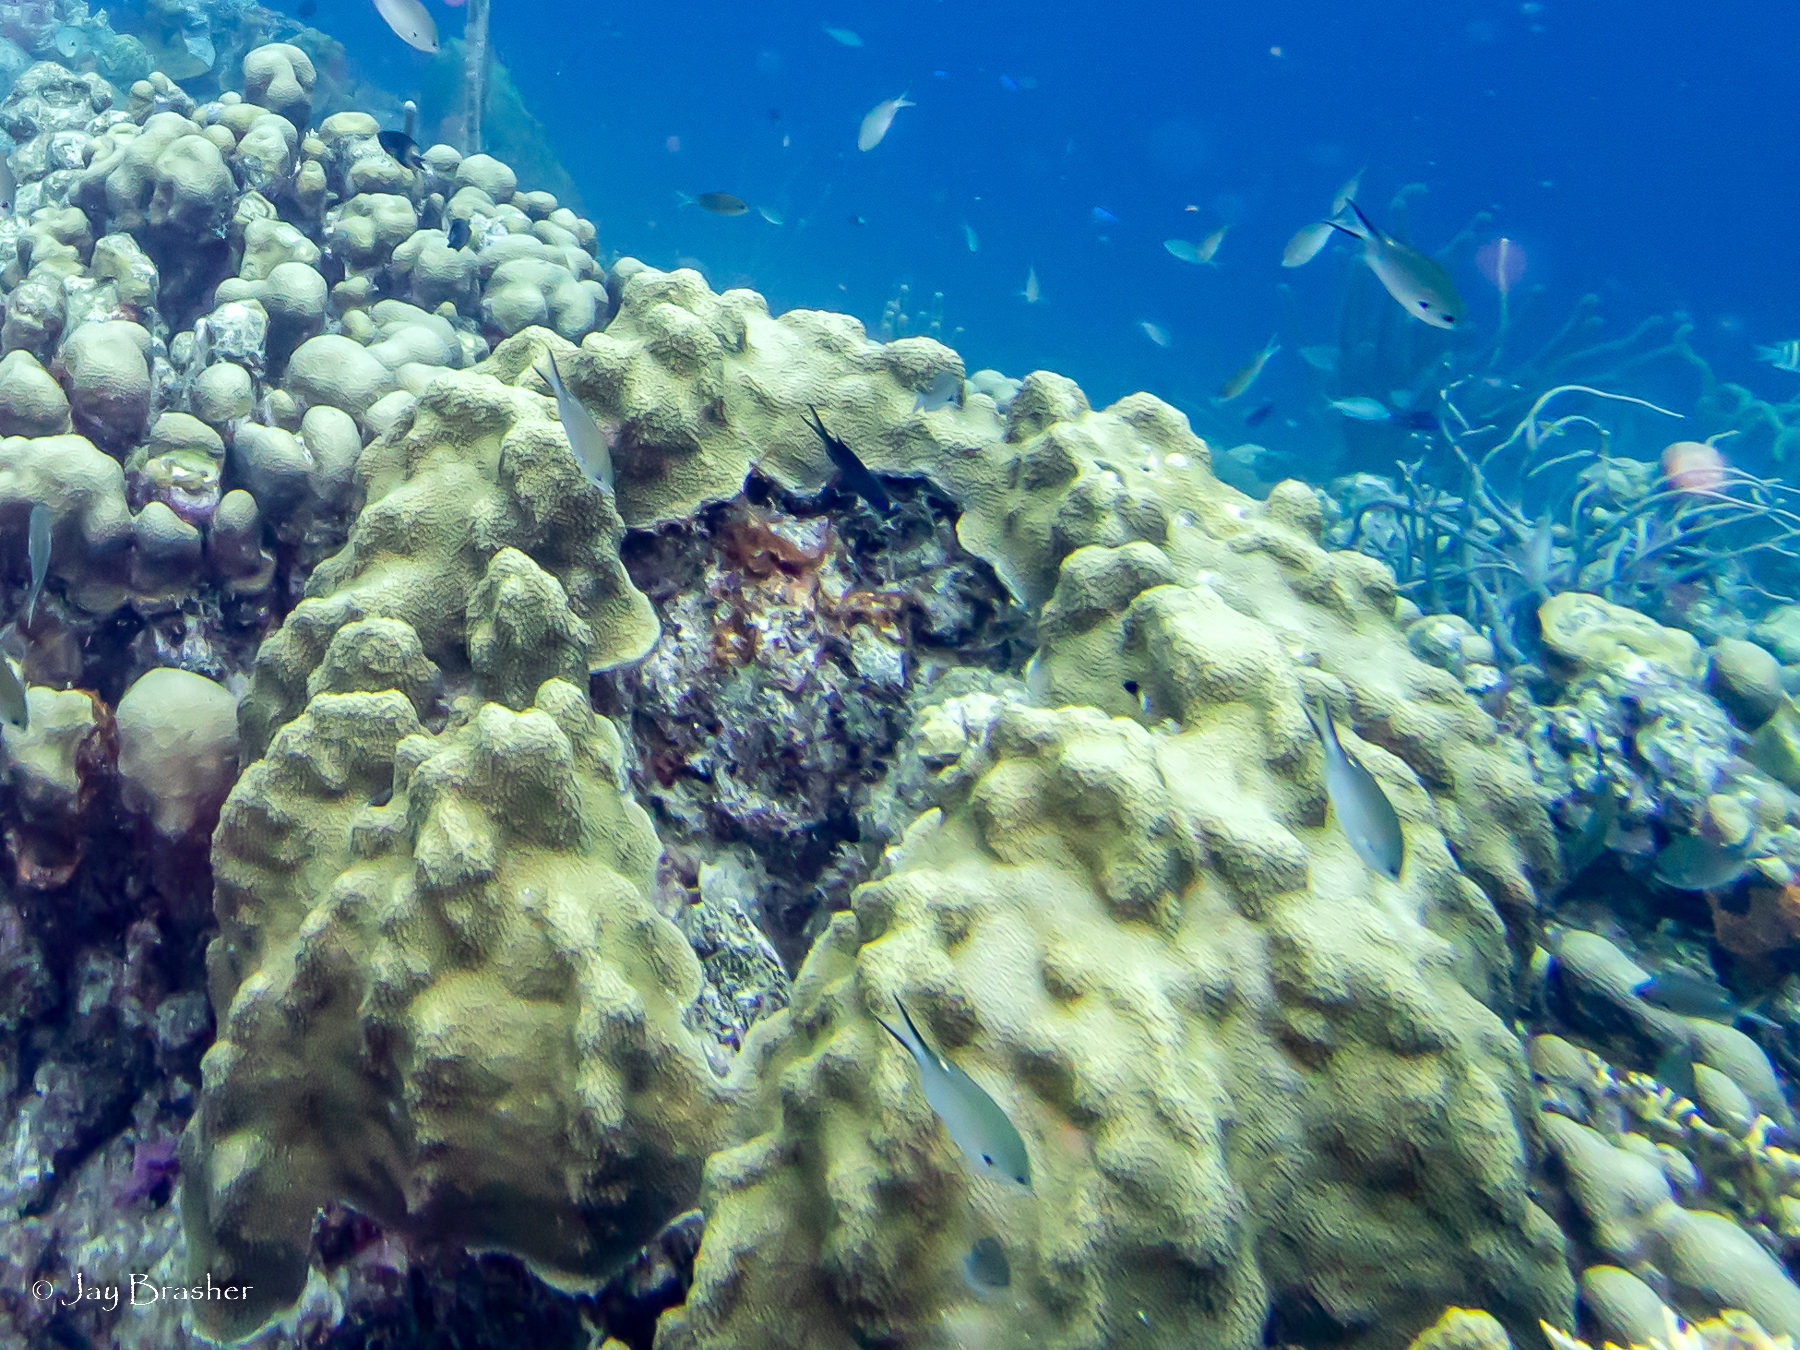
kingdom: Animalia
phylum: Cnidaria
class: Anthozoa
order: Scleractinia
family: Merulinidae
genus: Orbicella
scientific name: Orbicella annularis
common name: Boulder star coral
